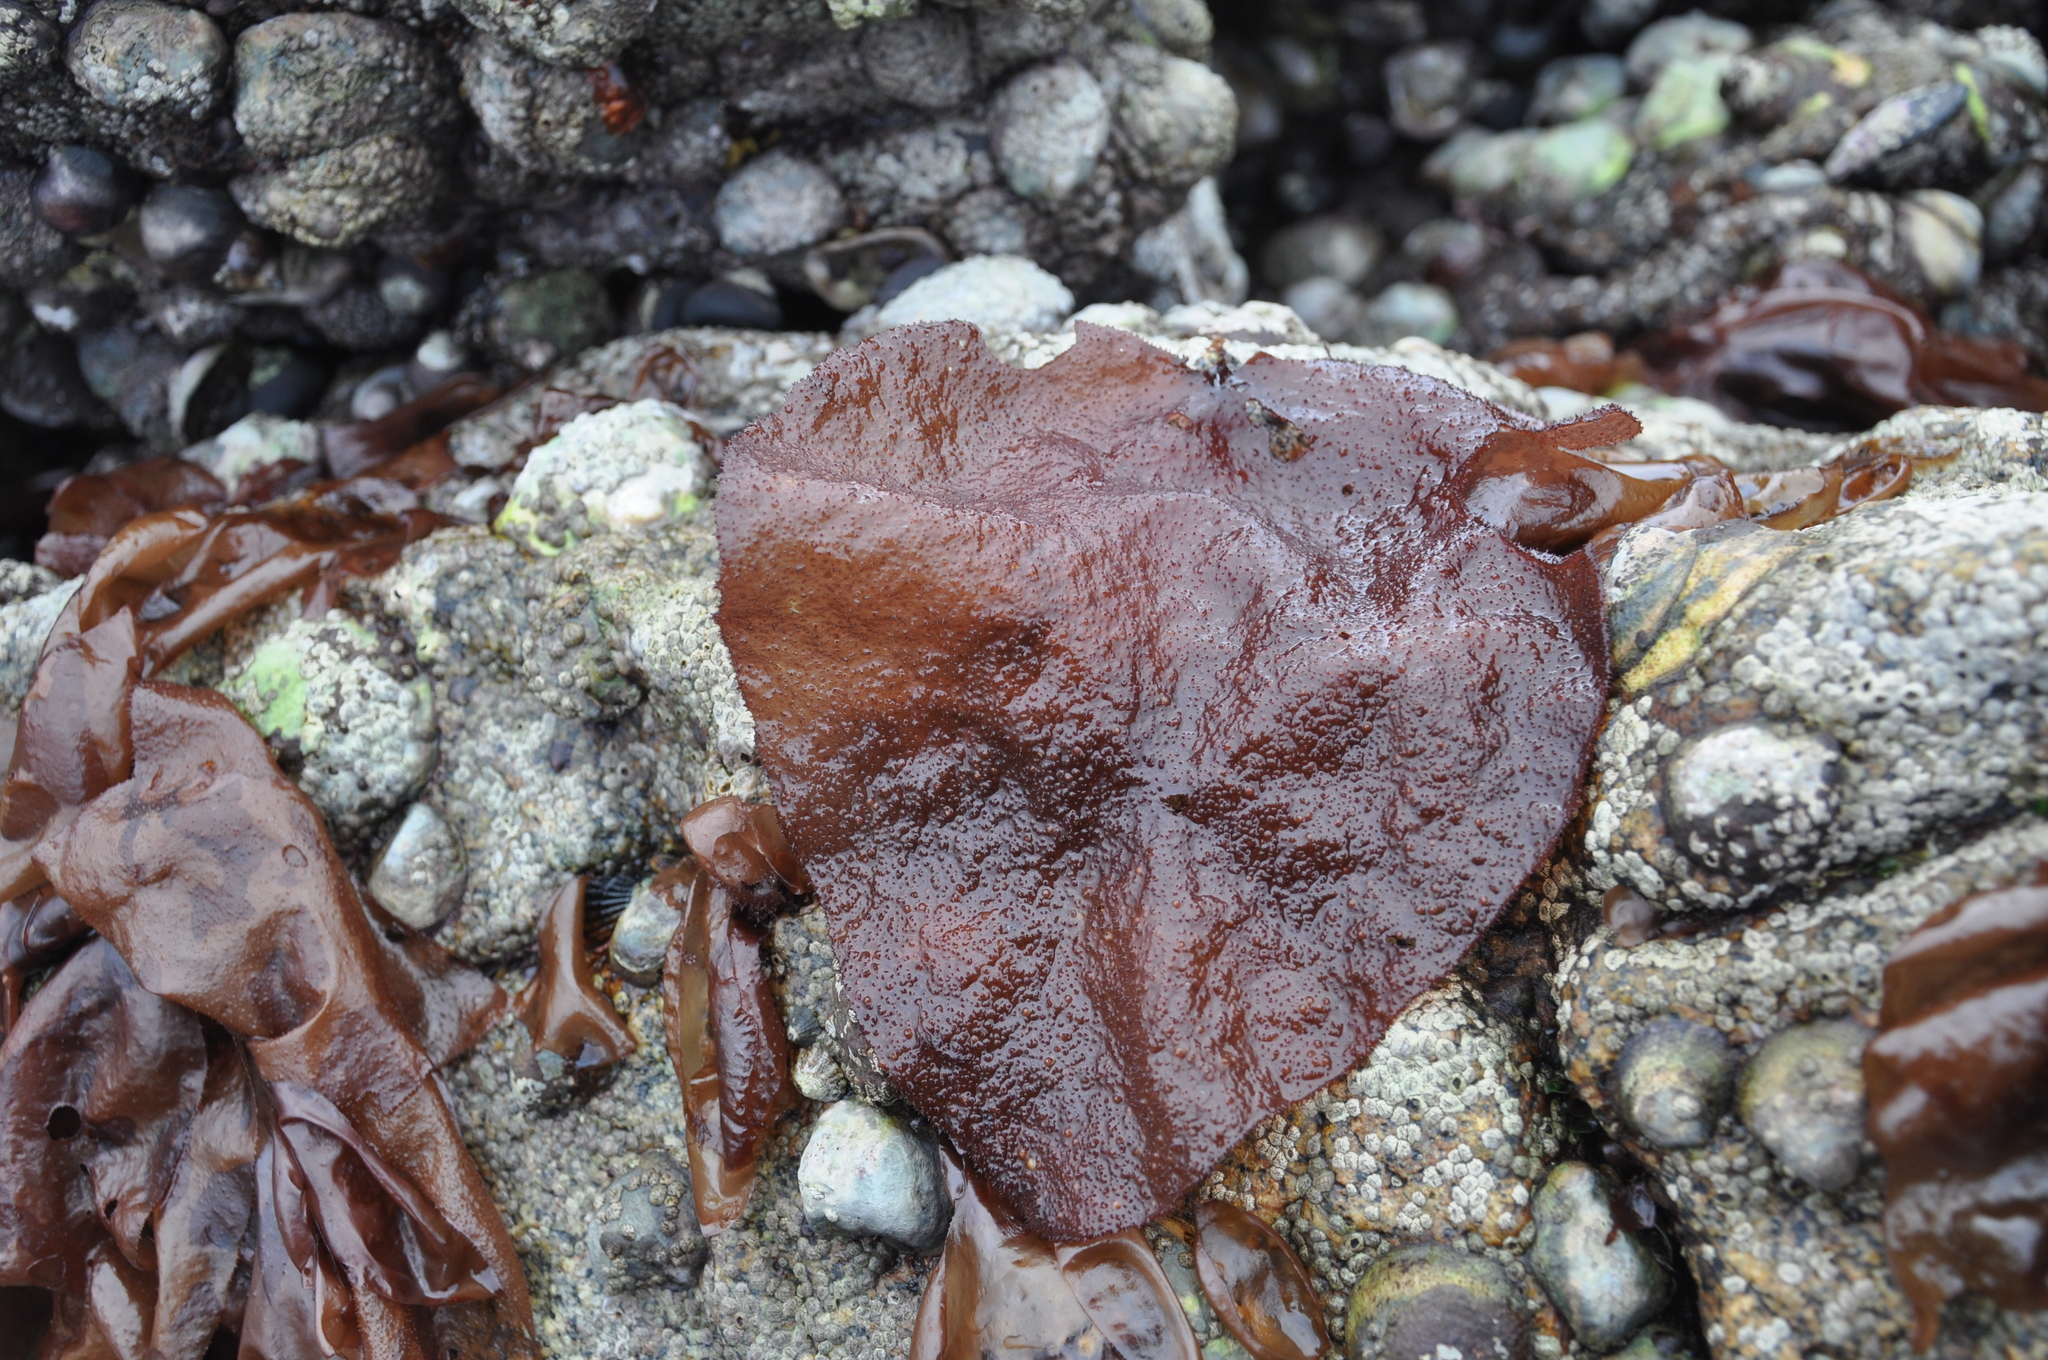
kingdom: Plantae
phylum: Rhodophyta
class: Florideophyceae
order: Gigartinales
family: Gigartinaceae
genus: Sarcothalia
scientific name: Sarcothalia
